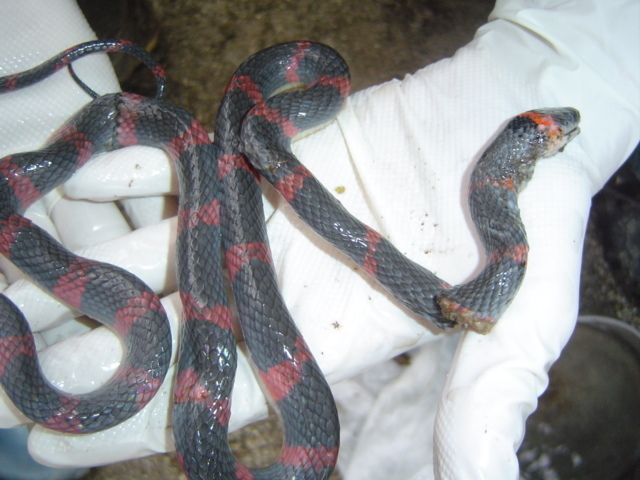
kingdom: Animalia
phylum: Chordata
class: Squamata
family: Colubridae
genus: Oxyrhopus
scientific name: Oxyrhopus petolarius
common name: Forest flame snake
